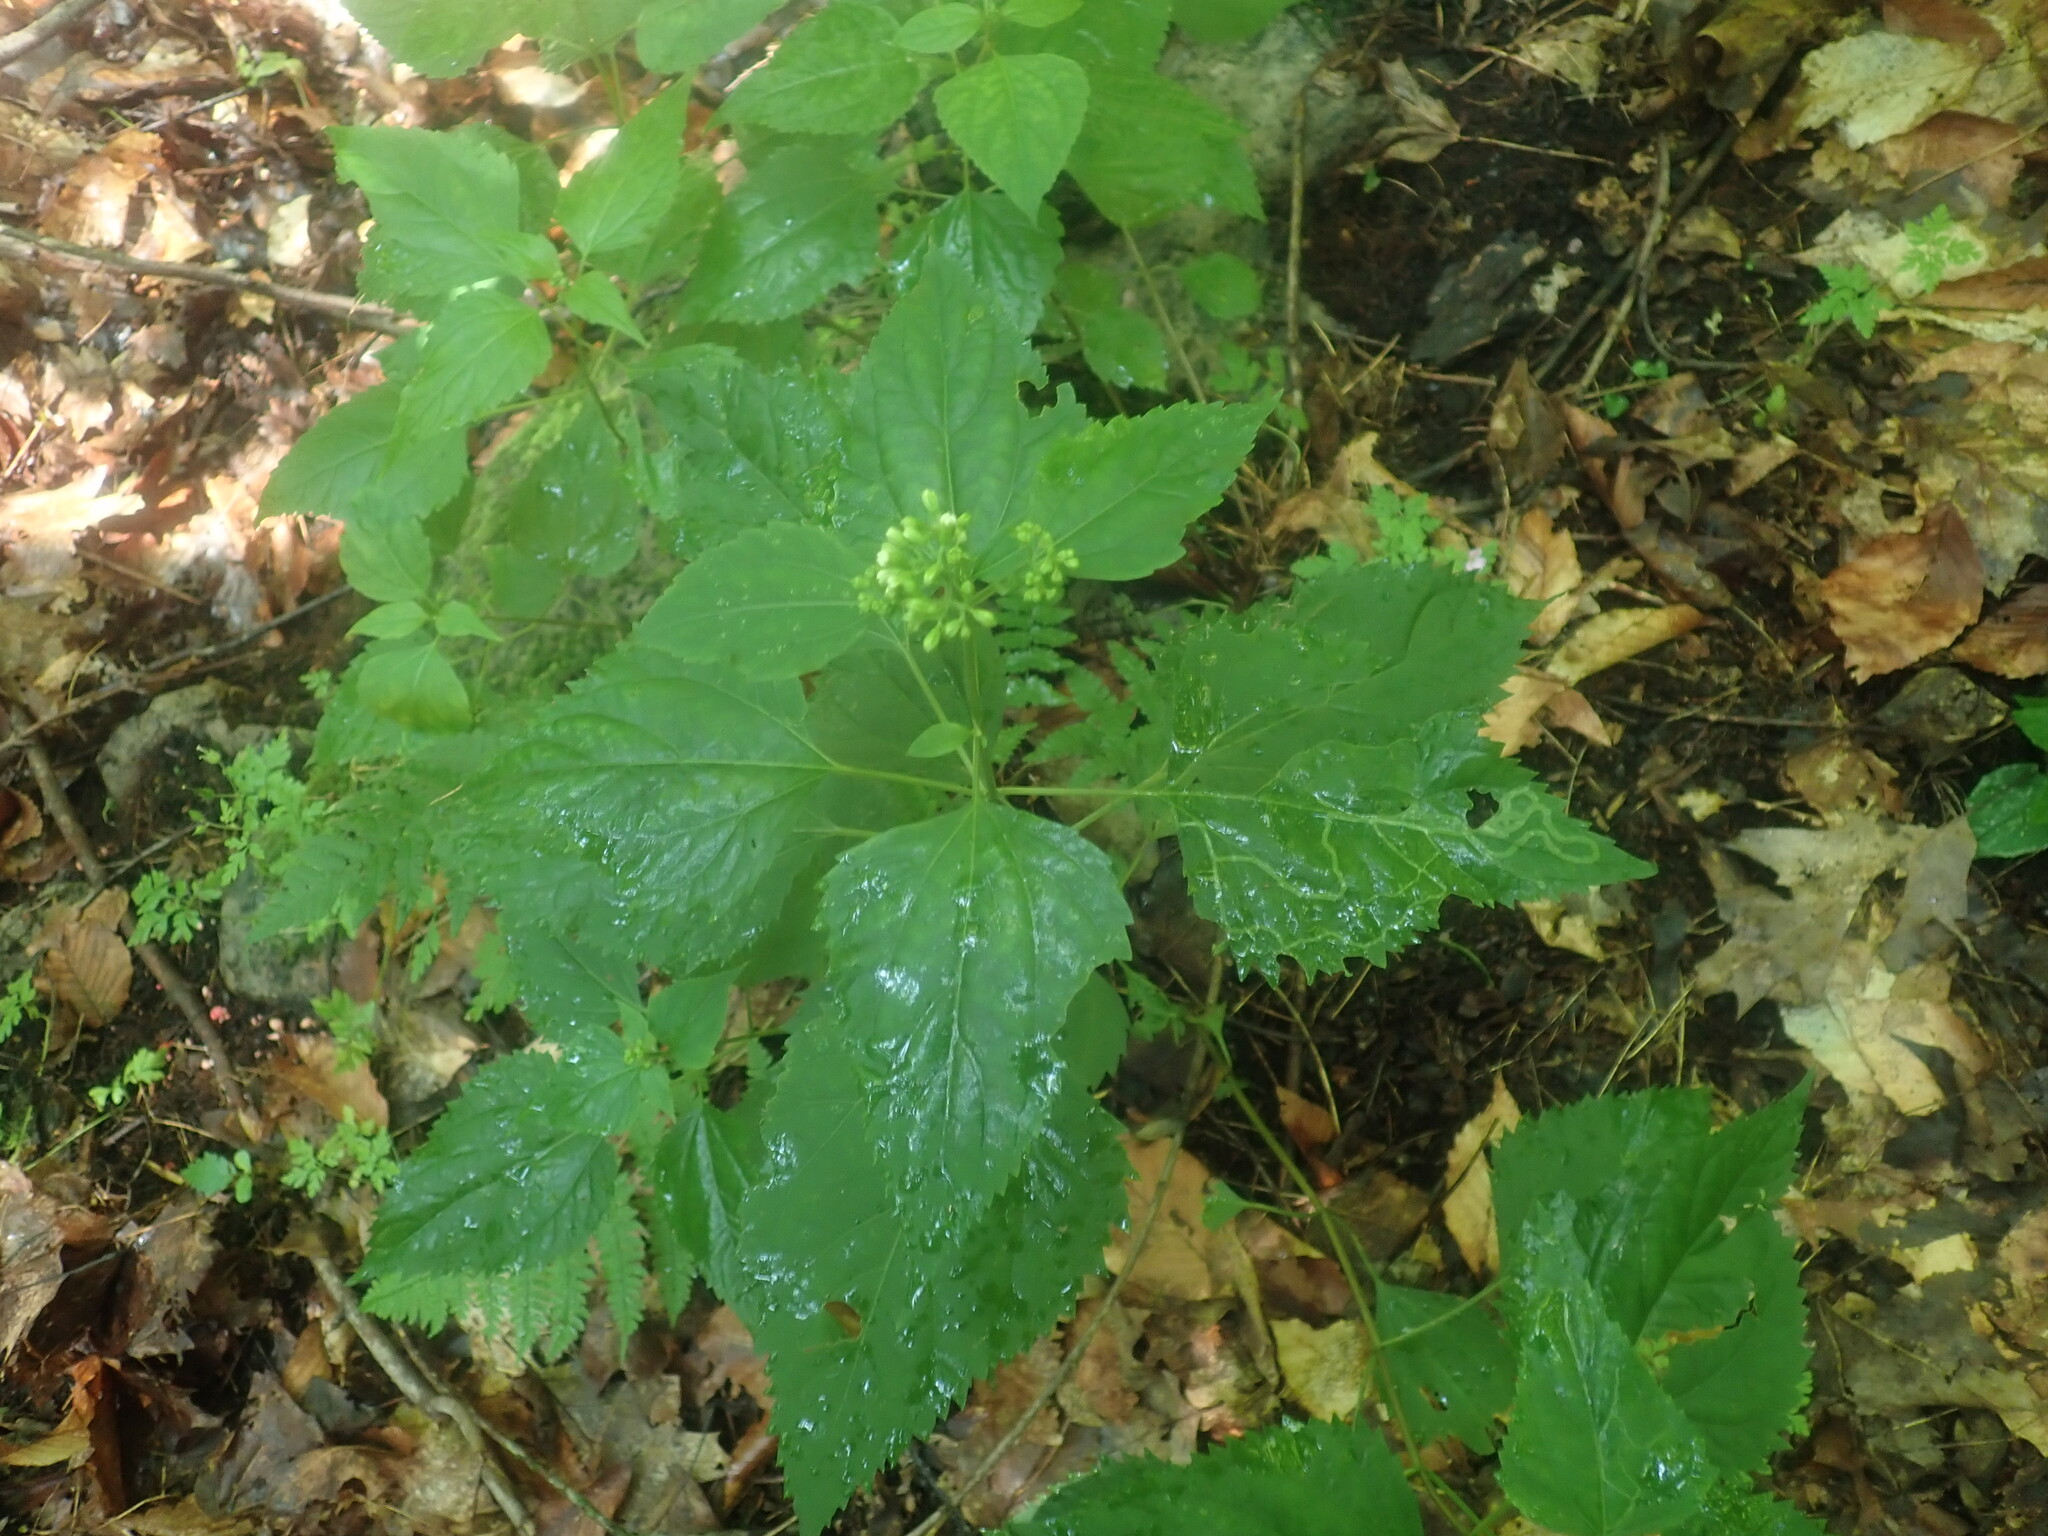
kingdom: Plantae
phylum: Tracheophyta
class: Magnoliopsida
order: Asterales
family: Asteraceae
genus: Ageratina
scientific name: Ageratina altissima
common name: White snakeroot
